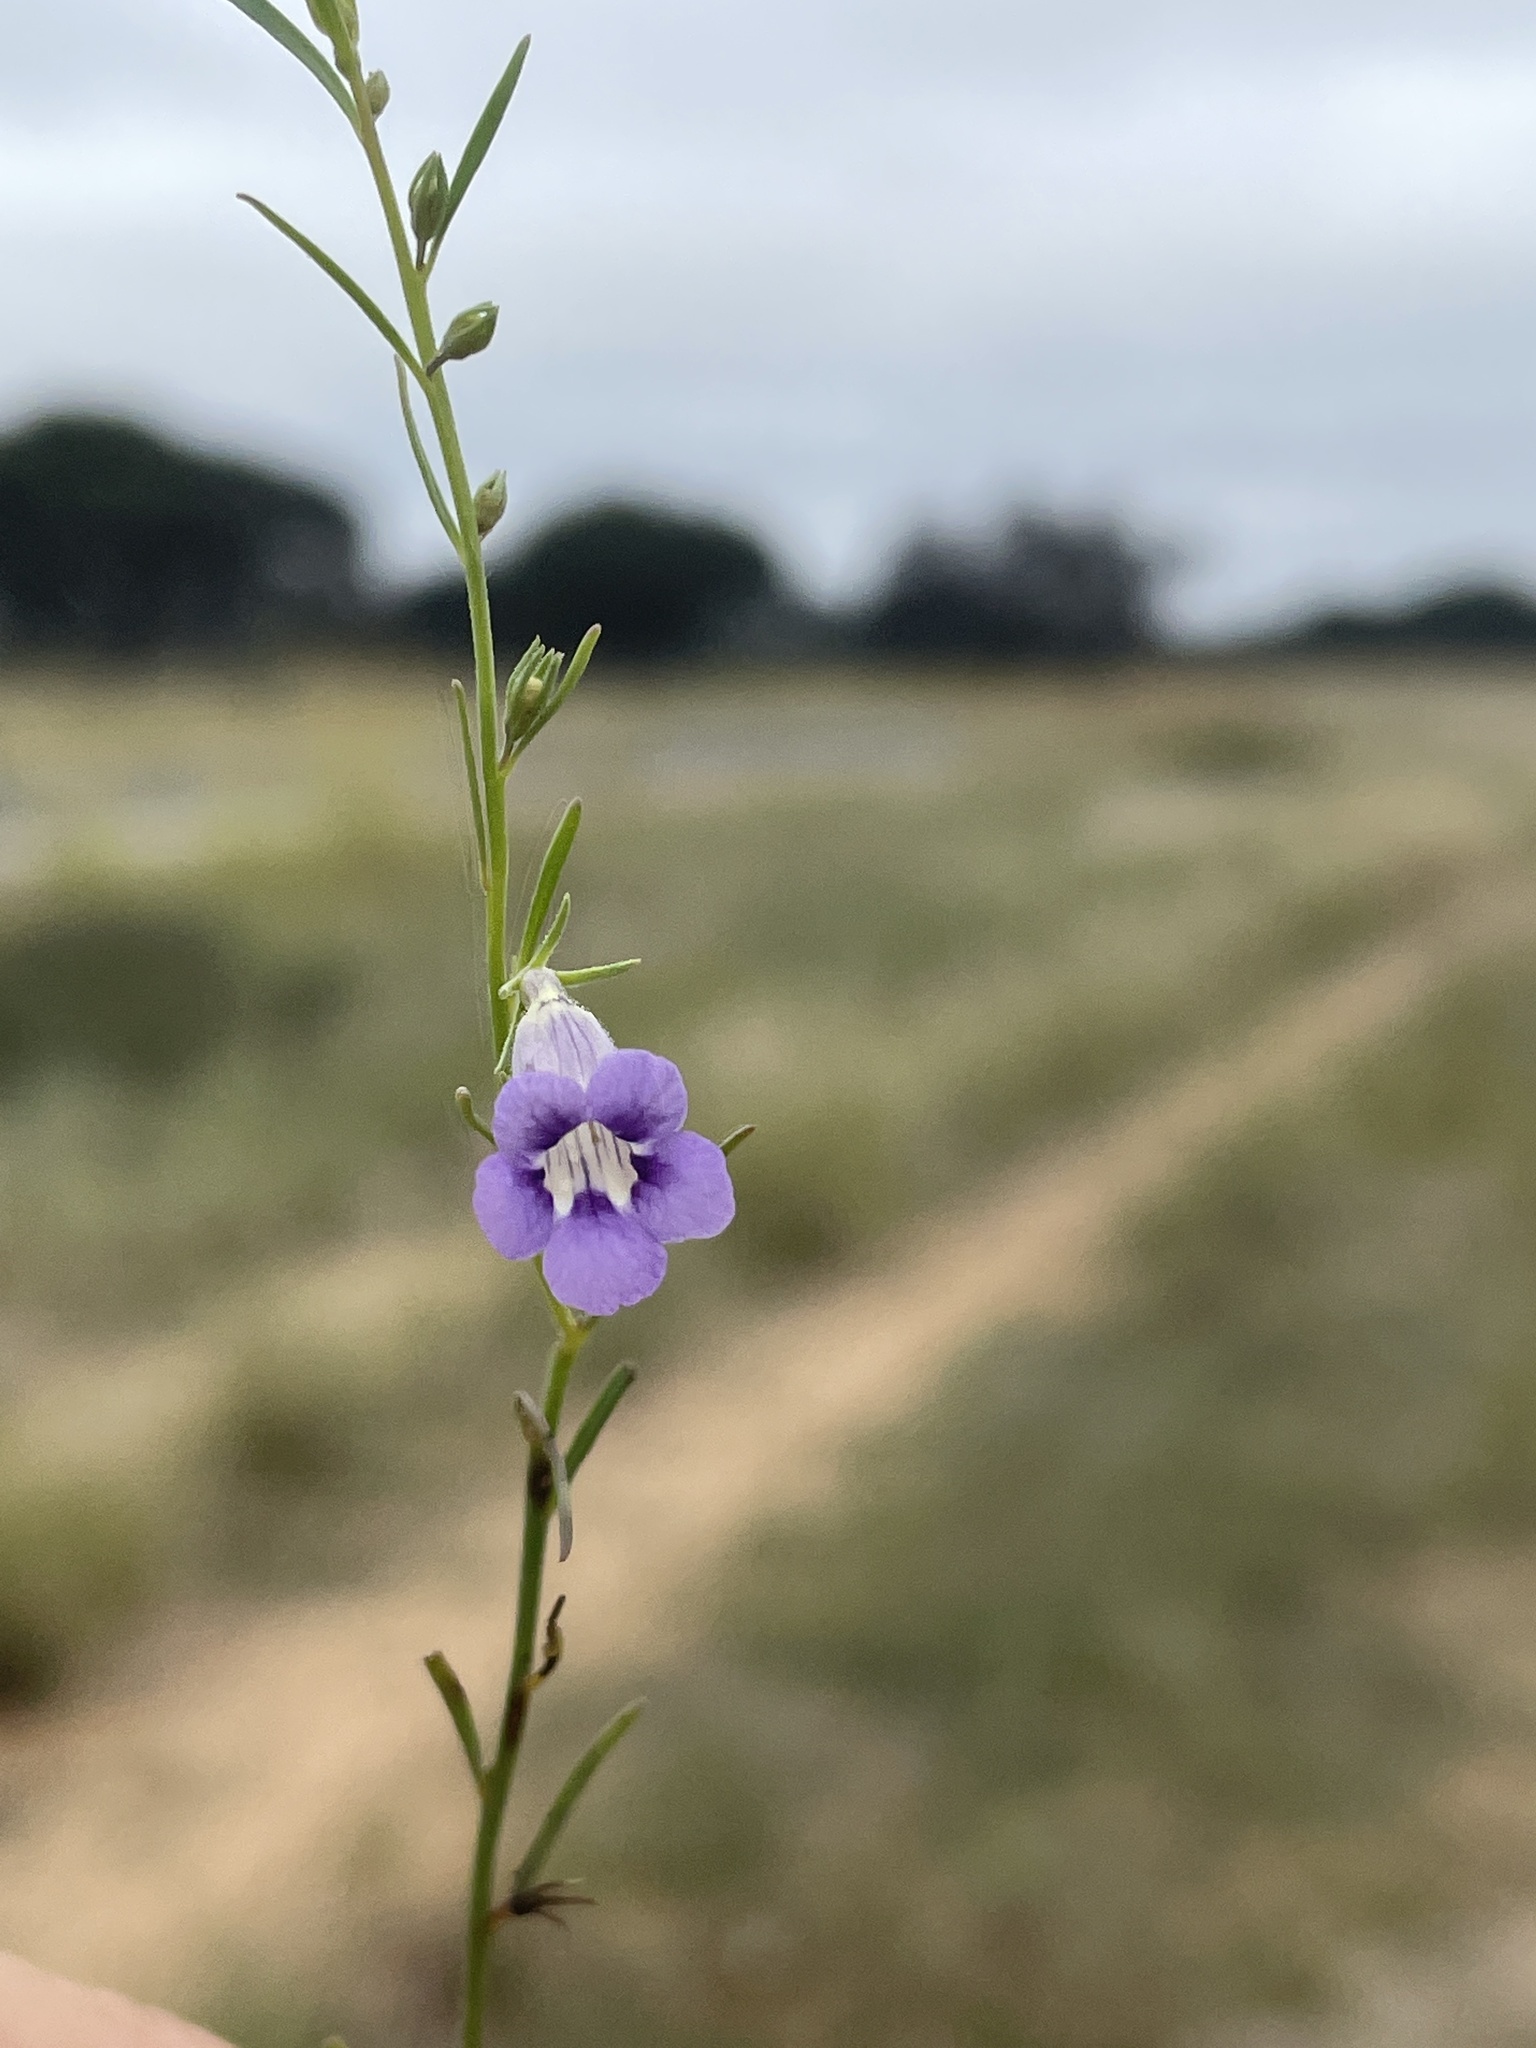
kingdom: Plantae
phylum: Tracheophyta
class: Magnoliopsida
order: Lamiales
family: Scrophulariaceae
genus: Peliostomum
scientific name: Peliostomum leucorrhizum
